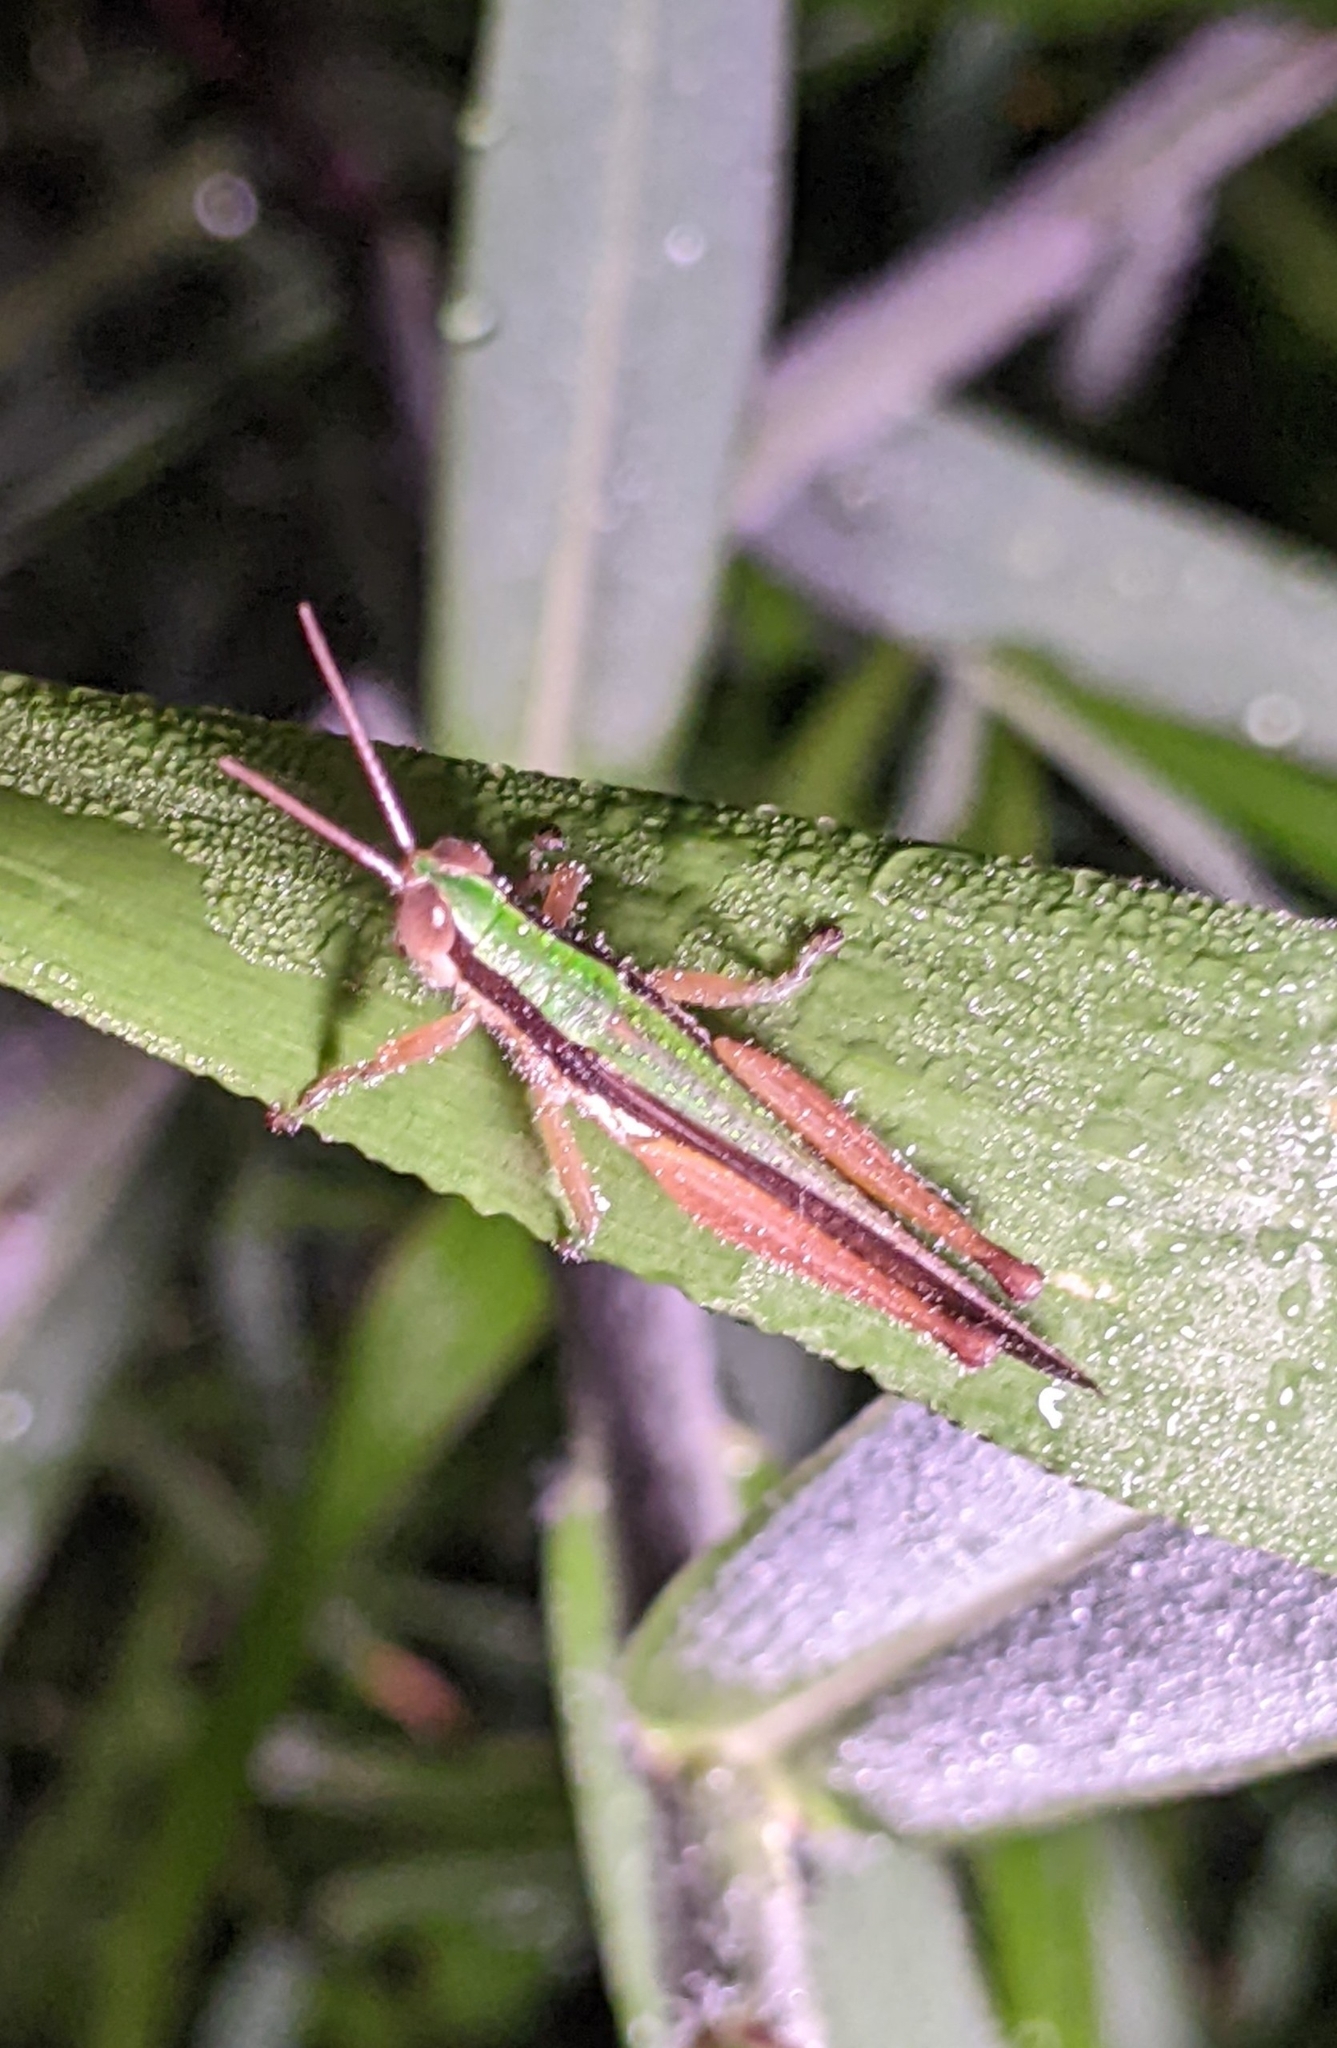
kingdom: Animalia
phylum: Arthropoda
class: Insecta
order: Orthoptera
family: Acrididae
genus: Oxya
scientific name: Oxya intricata
